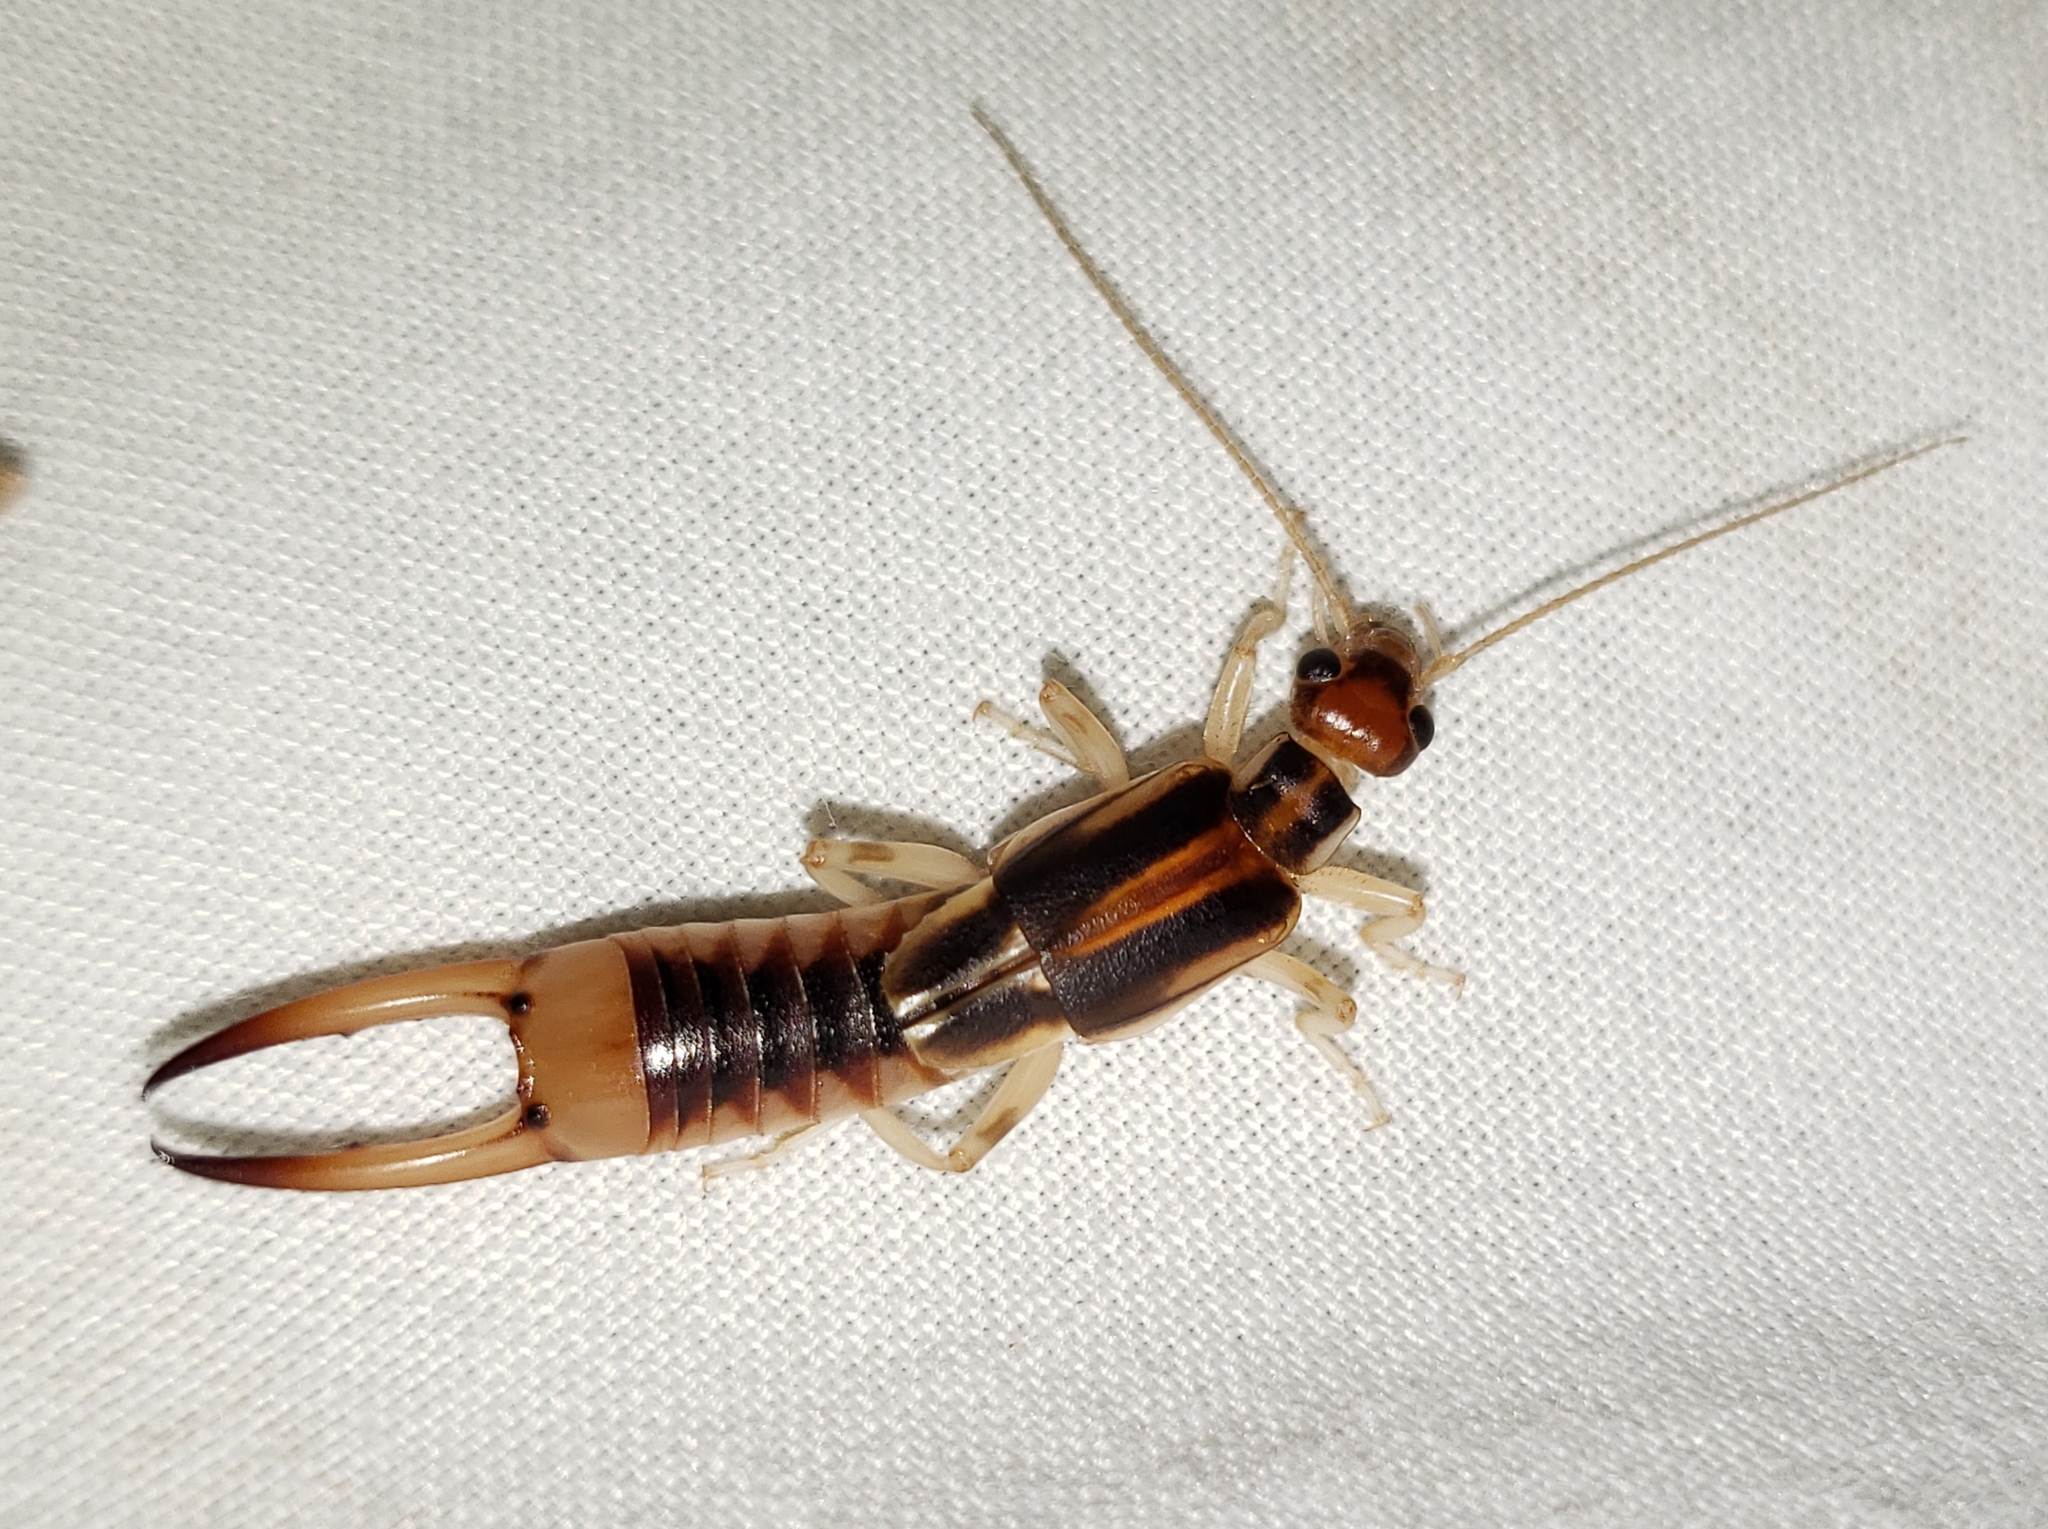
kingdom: Animalia
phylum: Arthropoda
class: Insecta
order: Dermaptera
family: Labiduridae
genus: Labidura
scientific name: Labidura riparia
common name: Striped earwig
